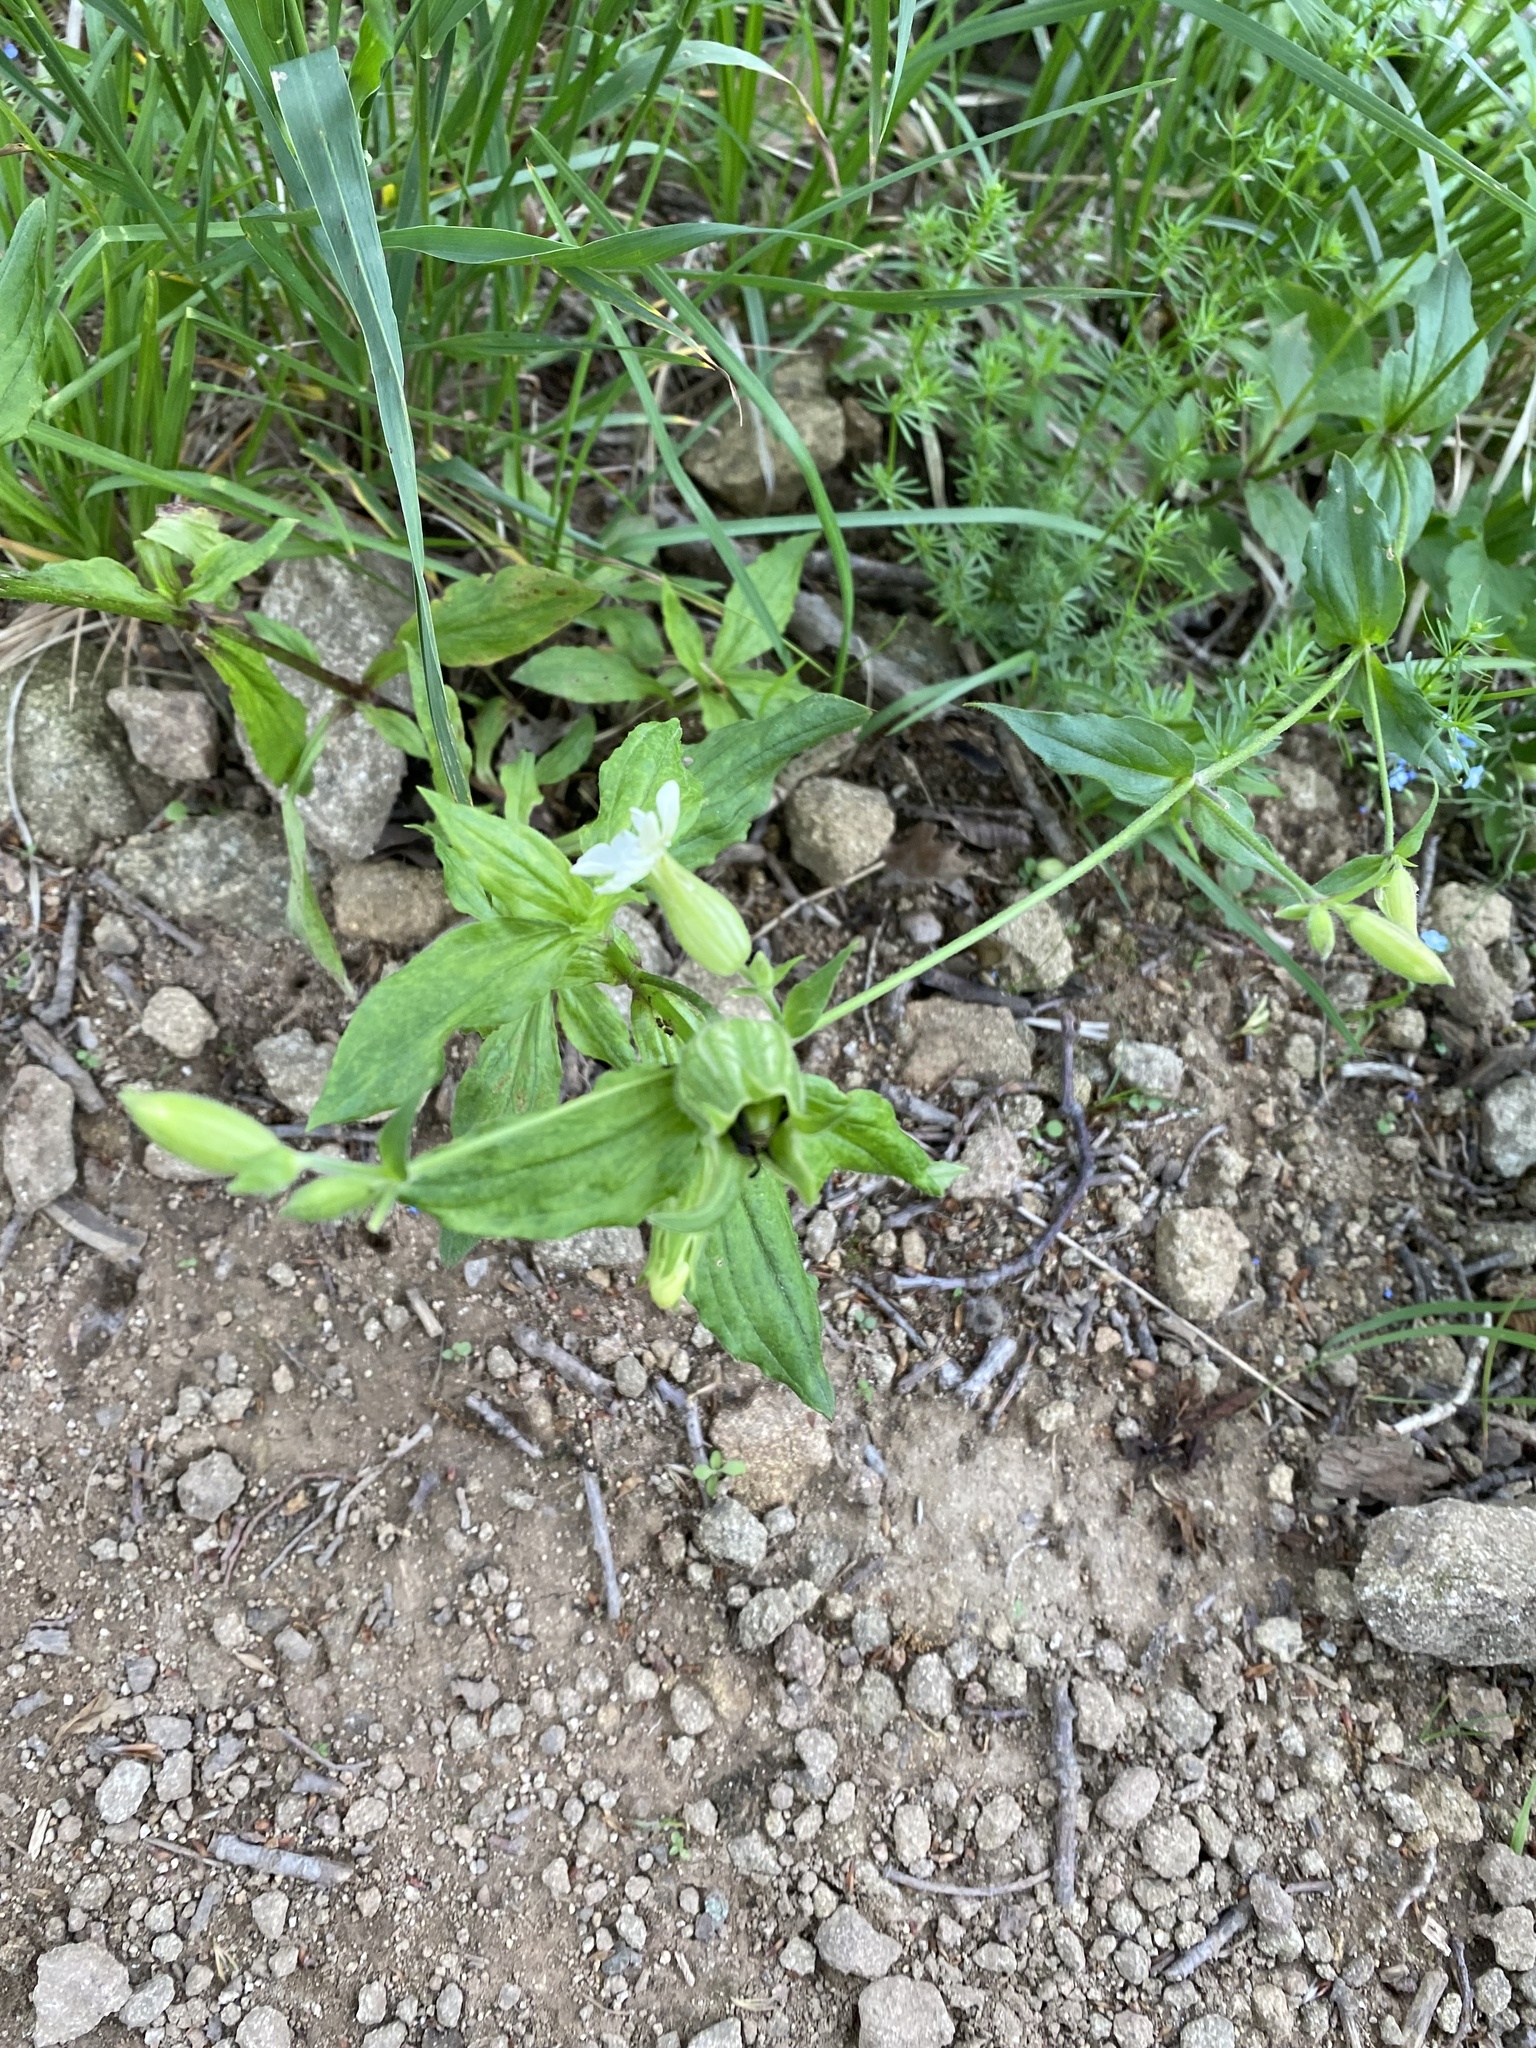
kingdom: Plantae
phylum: Tracheophyta
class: Magnoliopsida
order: Caryophyllales
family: Caryophyllaceae
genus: Silene
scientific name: Silene latifolia
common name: White campion
